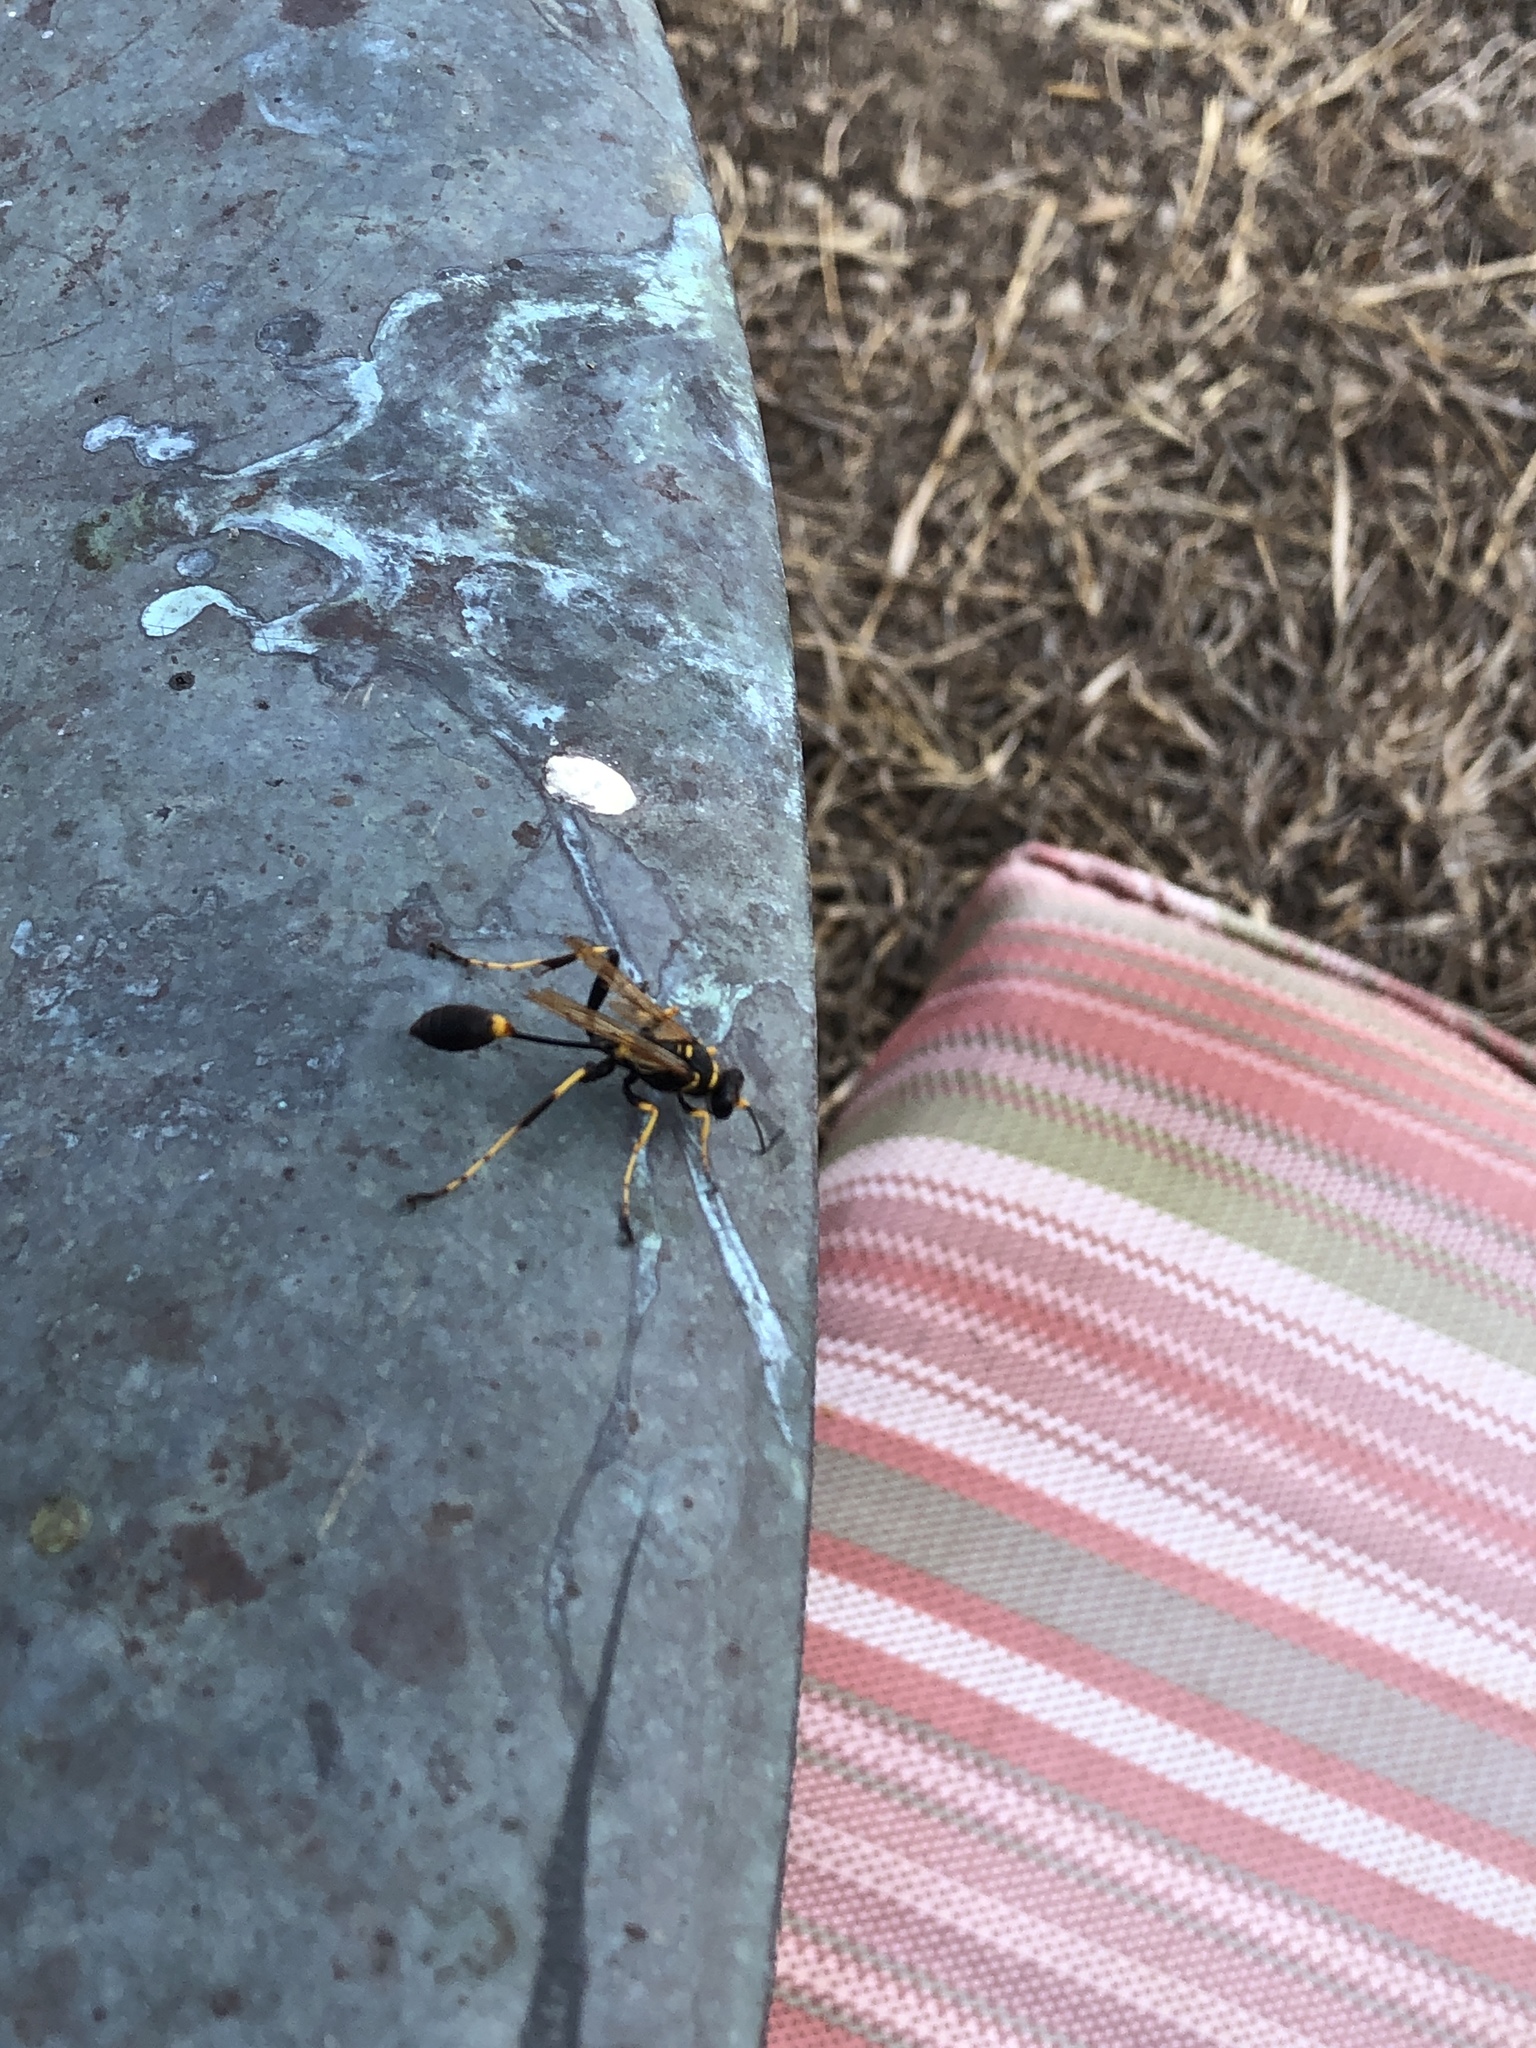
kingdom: Animalia
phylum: Arthropoda
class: Insecta
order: Hymenoptera
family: Sphecidae
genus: Sceliphron
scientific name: Sceliphron caementarium
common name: Mud dauber
